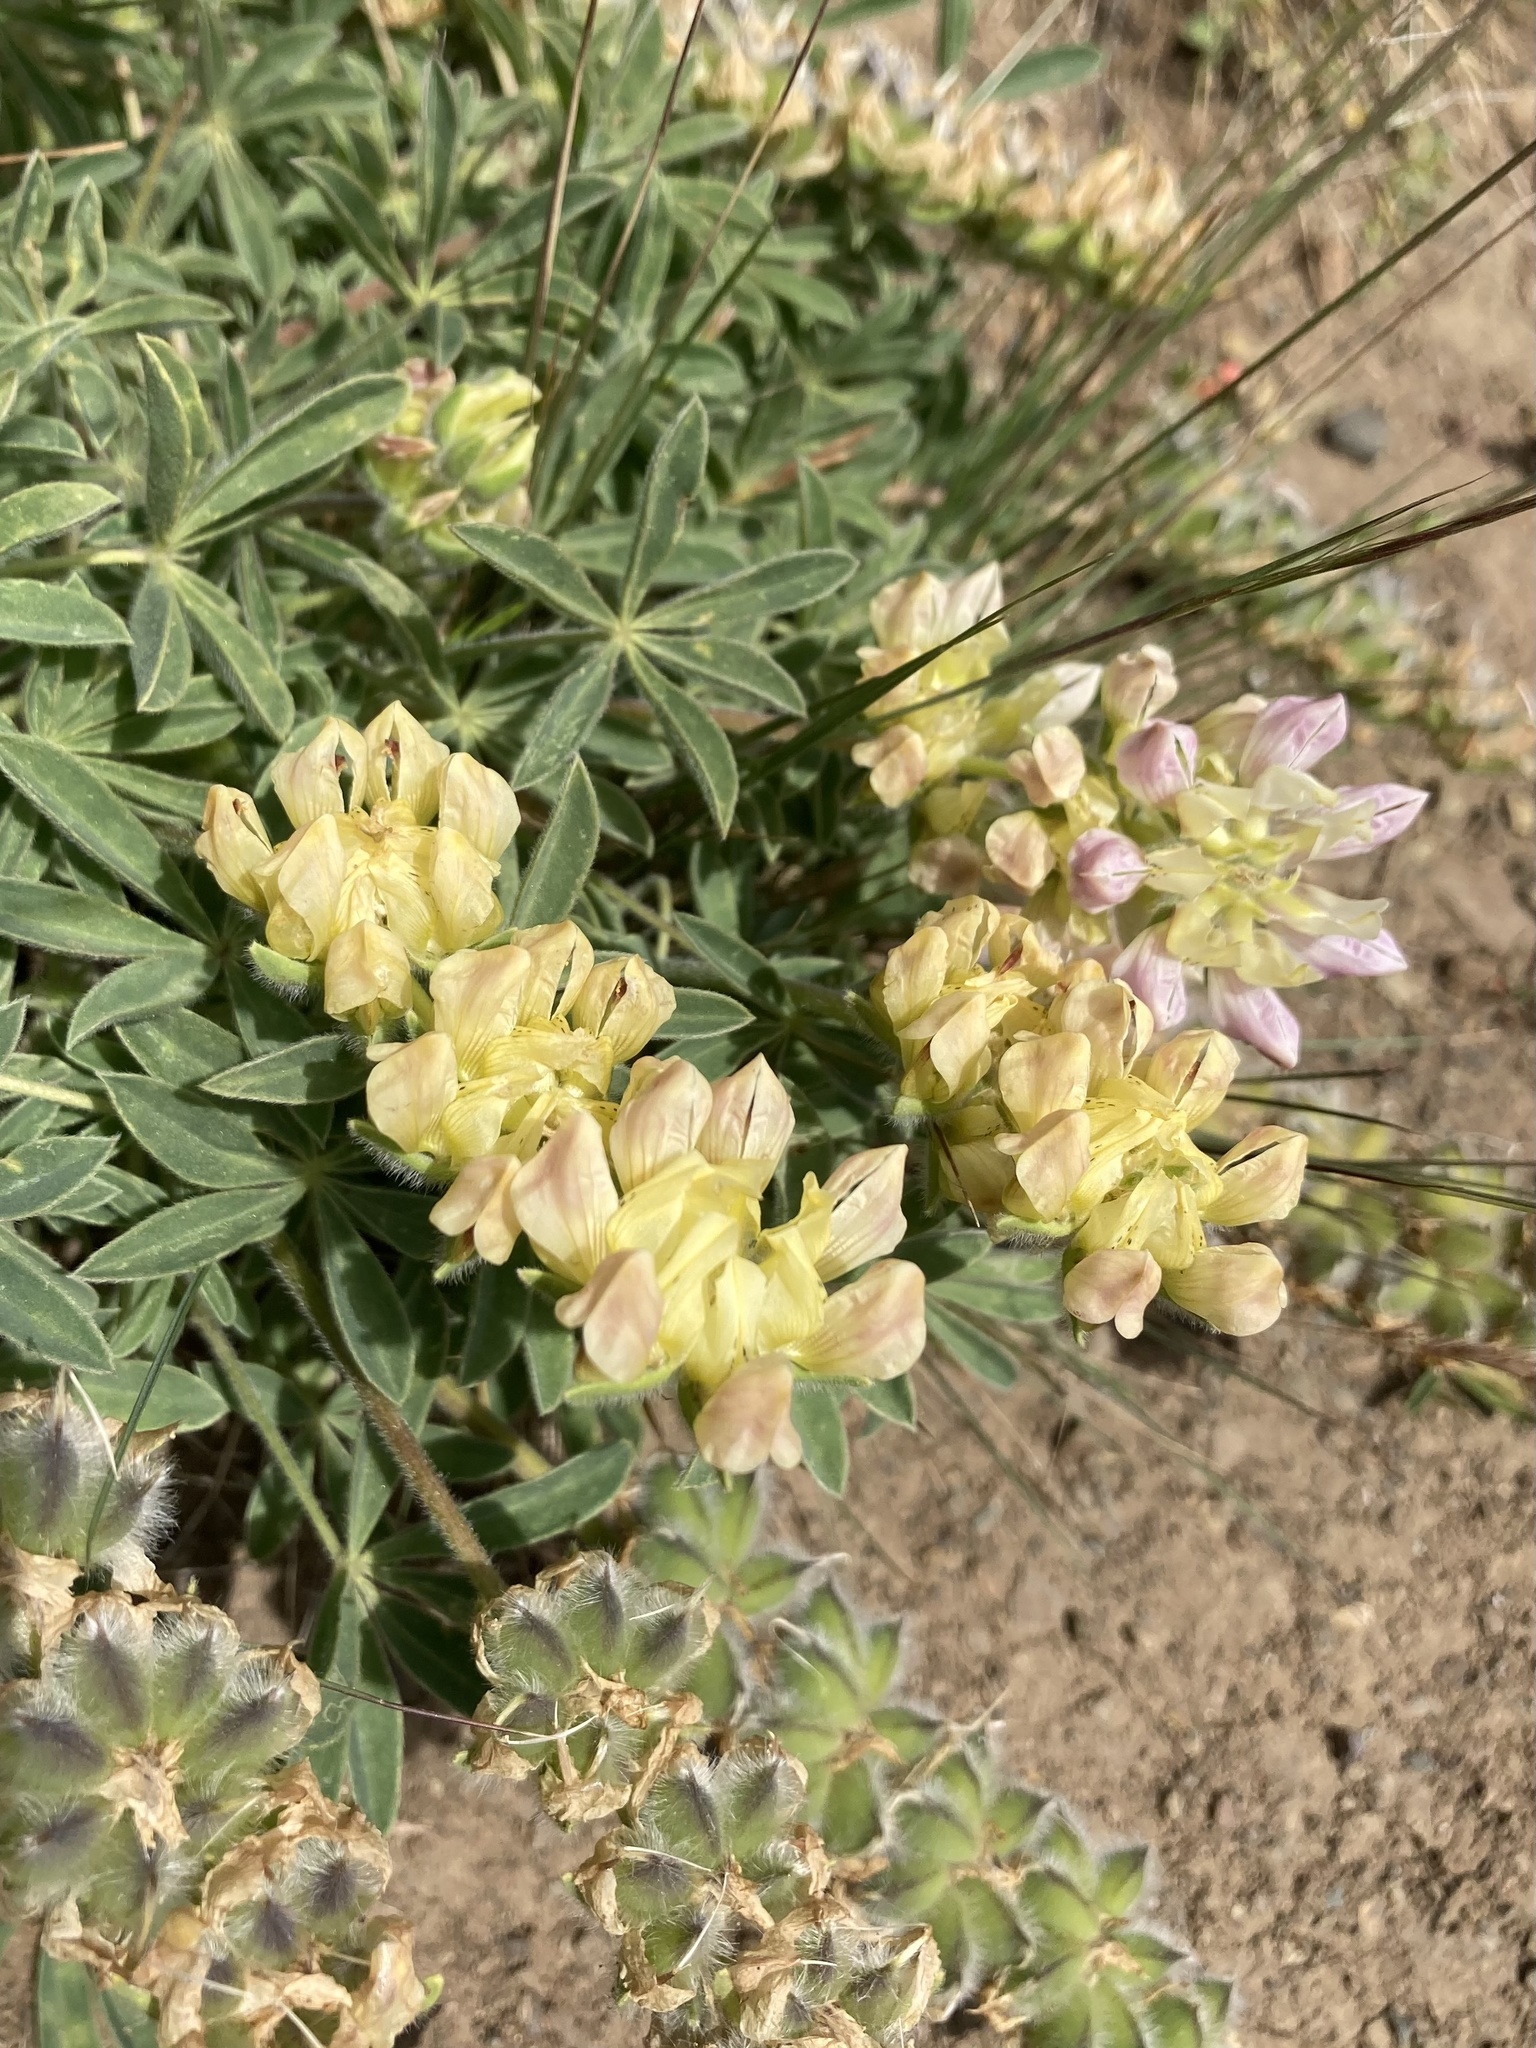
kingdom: Plantae
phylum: Tracheophyta
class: Magnoliopsida
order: Fabales
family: Fabaceae
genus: Lupinus
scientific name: Lupinus microcarpus
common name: Chick lupine
